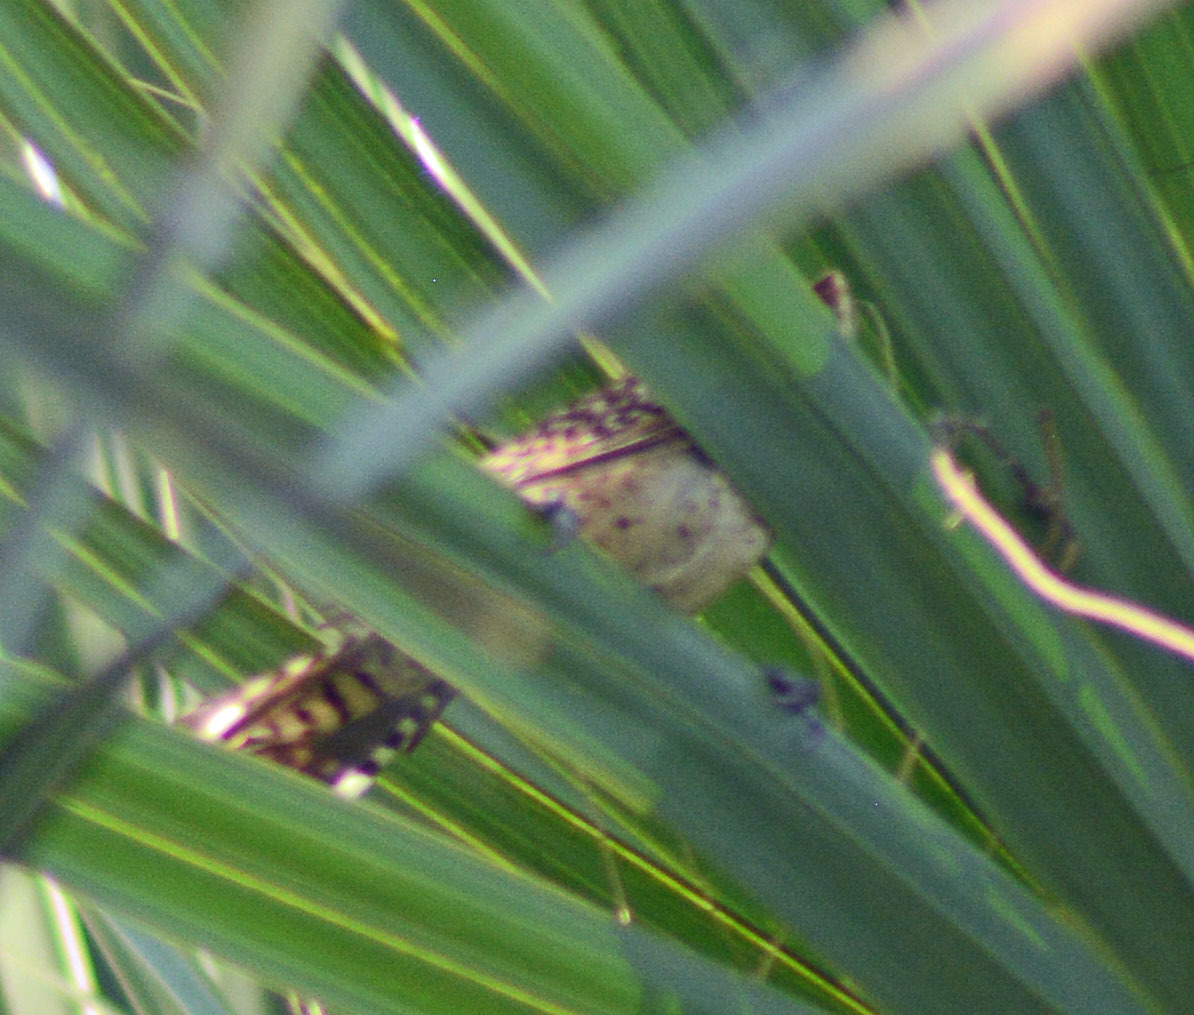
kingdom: Animalia
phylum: Chordata
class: Aves
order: Passeriformes
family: Troglodytidae
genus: Campylorhynchus
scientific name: Campylorhynchus rufinucha
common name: Rufous-naped wren
